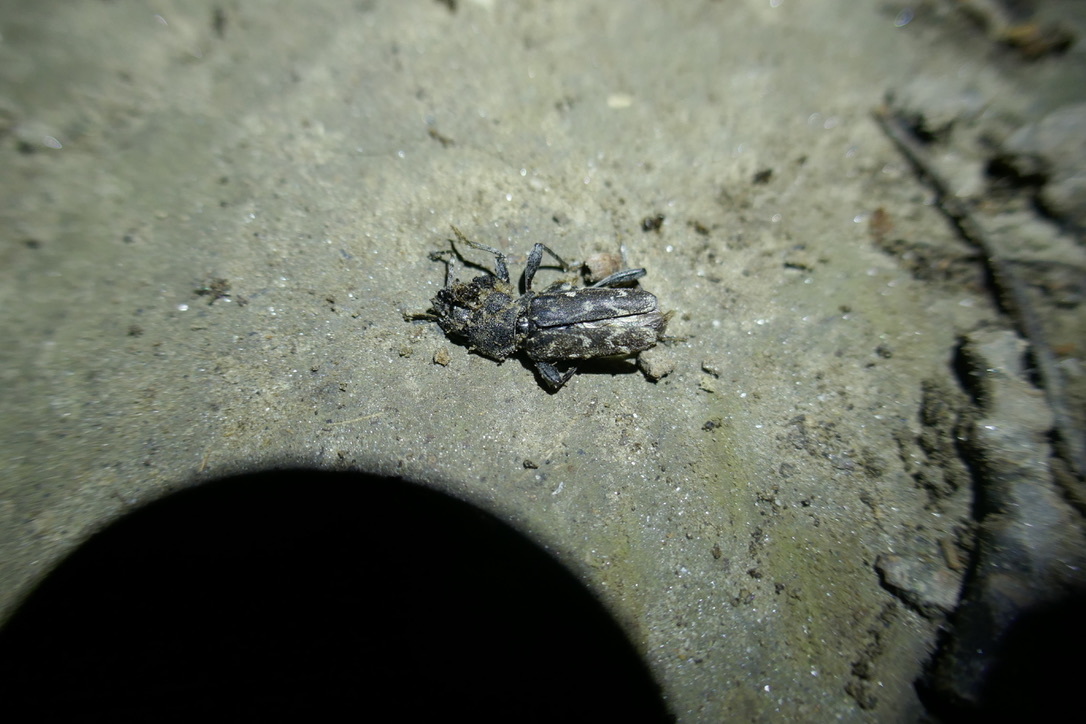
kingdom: Animalia
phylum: Arthropoda
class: Insecta
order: Coleoptera
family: Cerambycidae
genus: Xylotrechus
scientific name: Xylotrechus rusticus
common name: Grey tiger long-horned beetle
